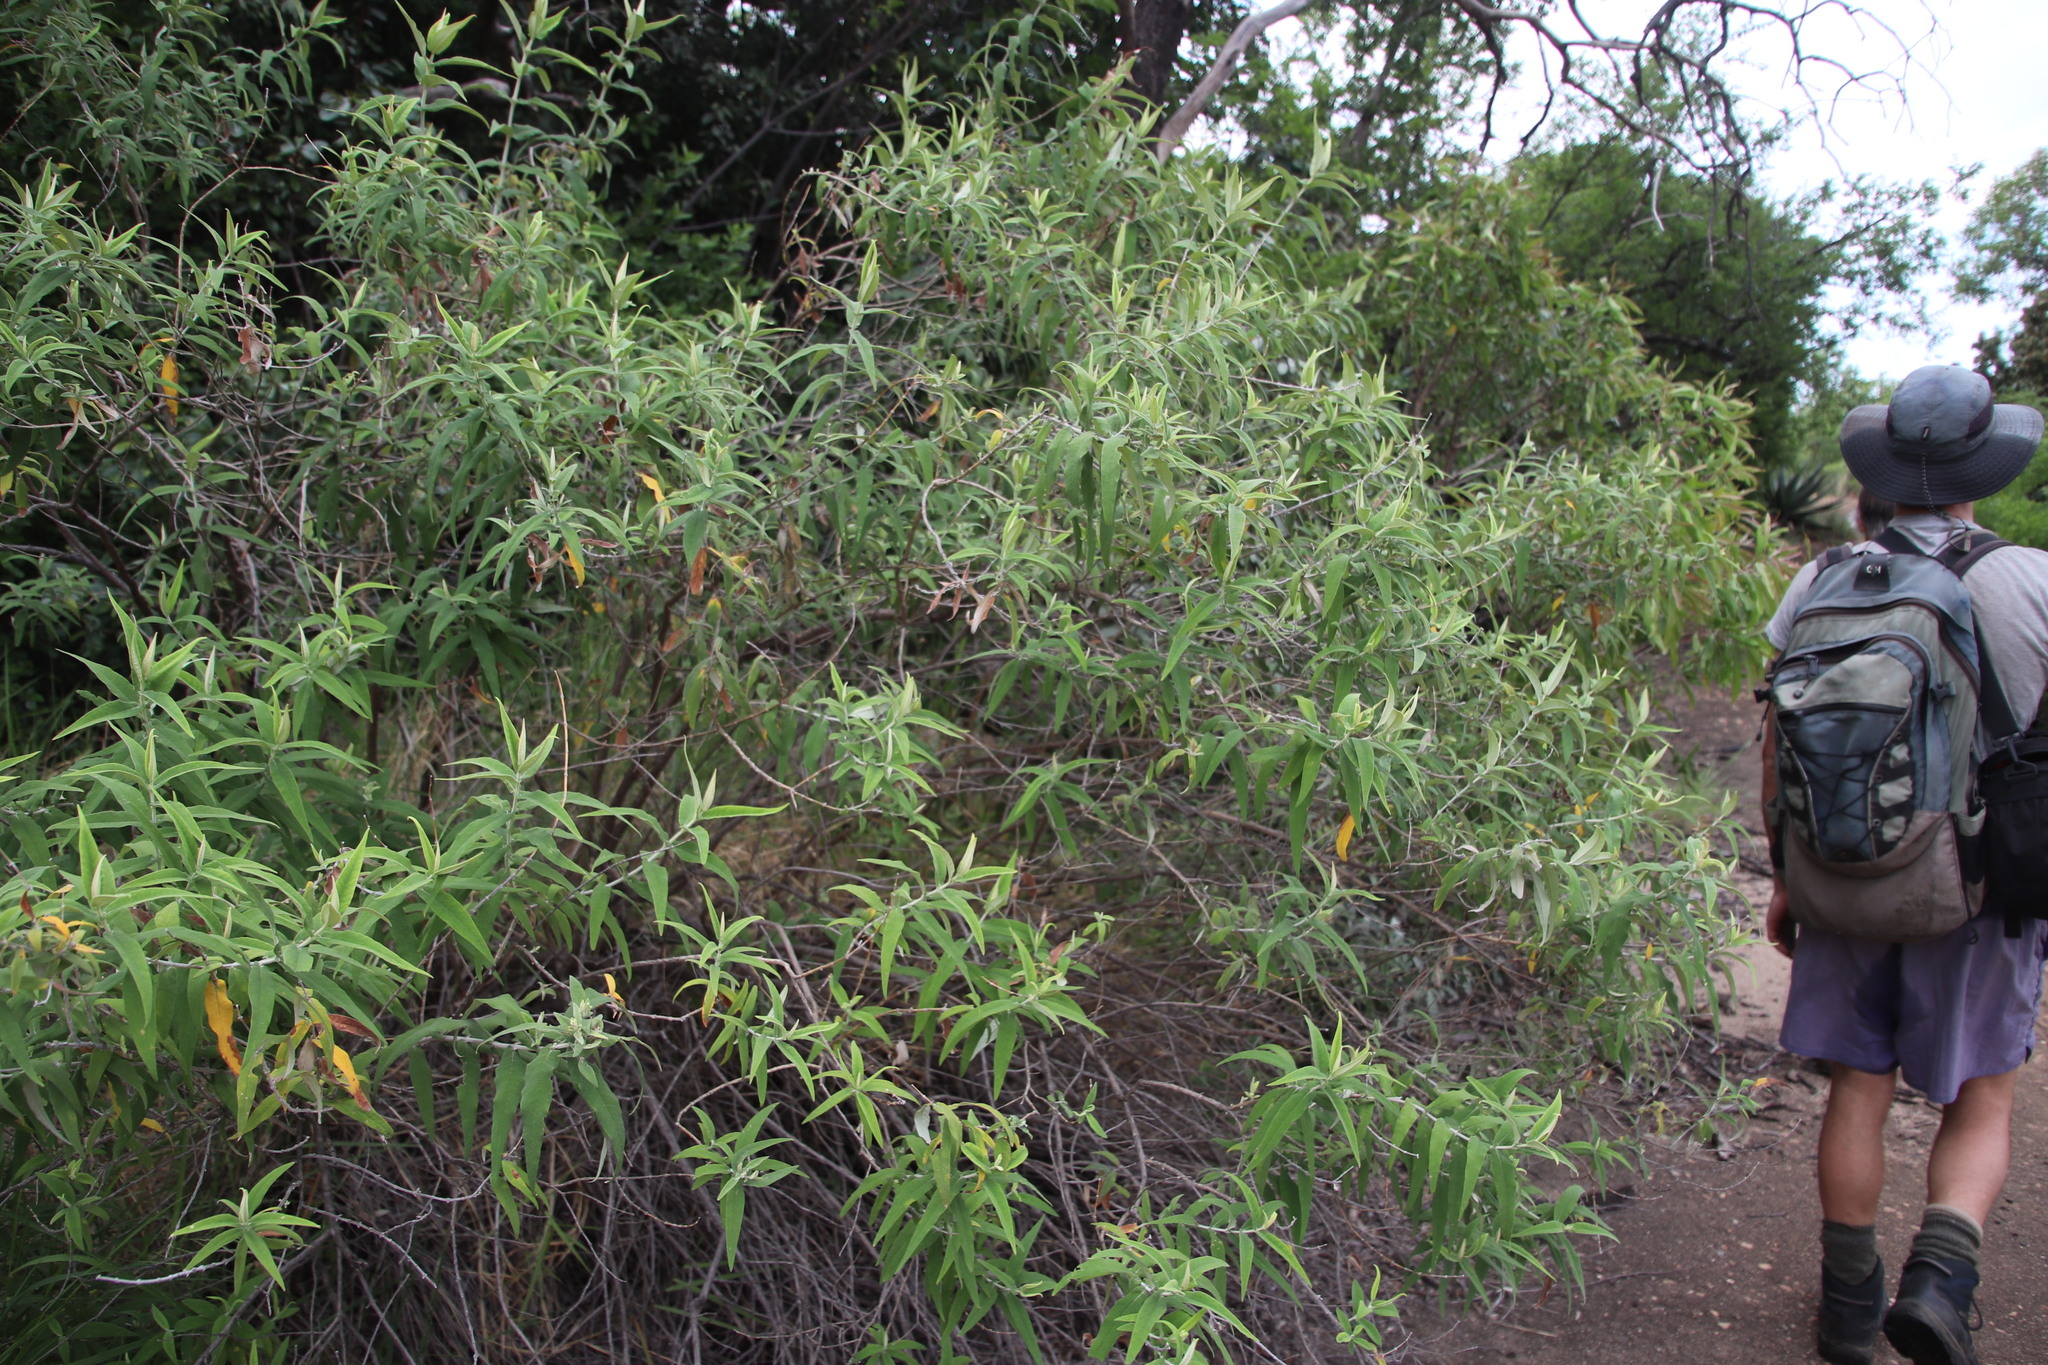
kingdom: Plantae
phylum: Tracheophyta
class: Magnoliopsida
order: Lamiales
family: Scrophulariaceae
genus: Buddleja
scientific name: Buddleja salviifolia
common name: Sagewood
